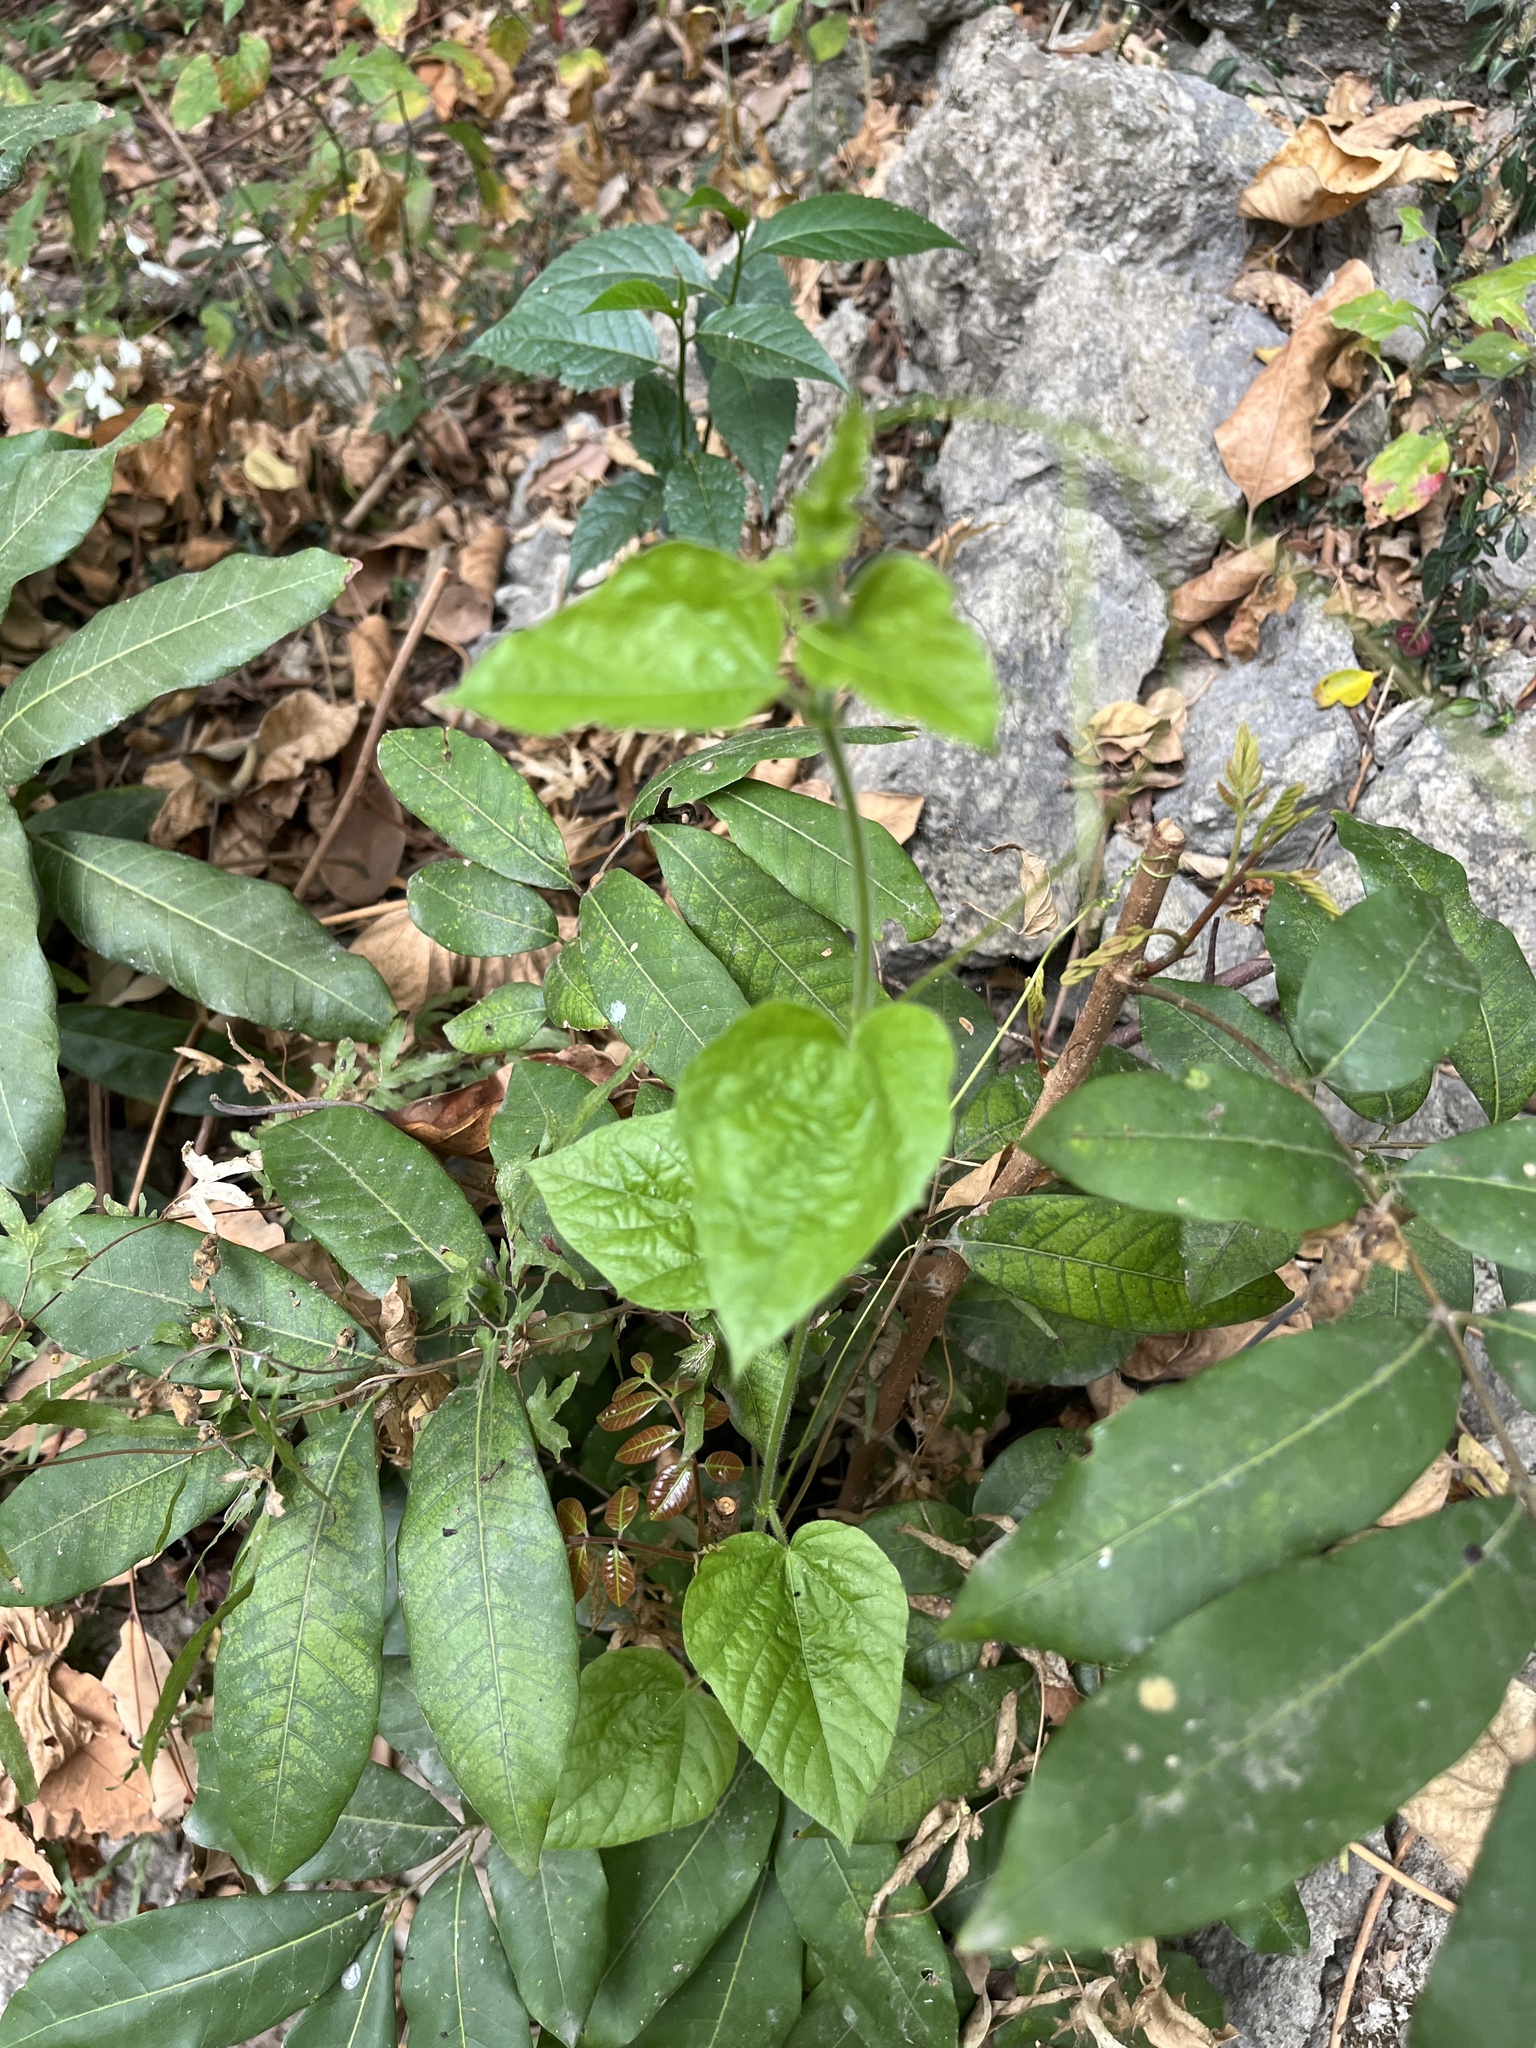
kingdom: Plantae
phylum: Tracheophyta
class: Magnoliopsida
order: Malpighiales
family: Passifloraceae
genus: Passiflora
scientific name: Passiflora vesicaria
